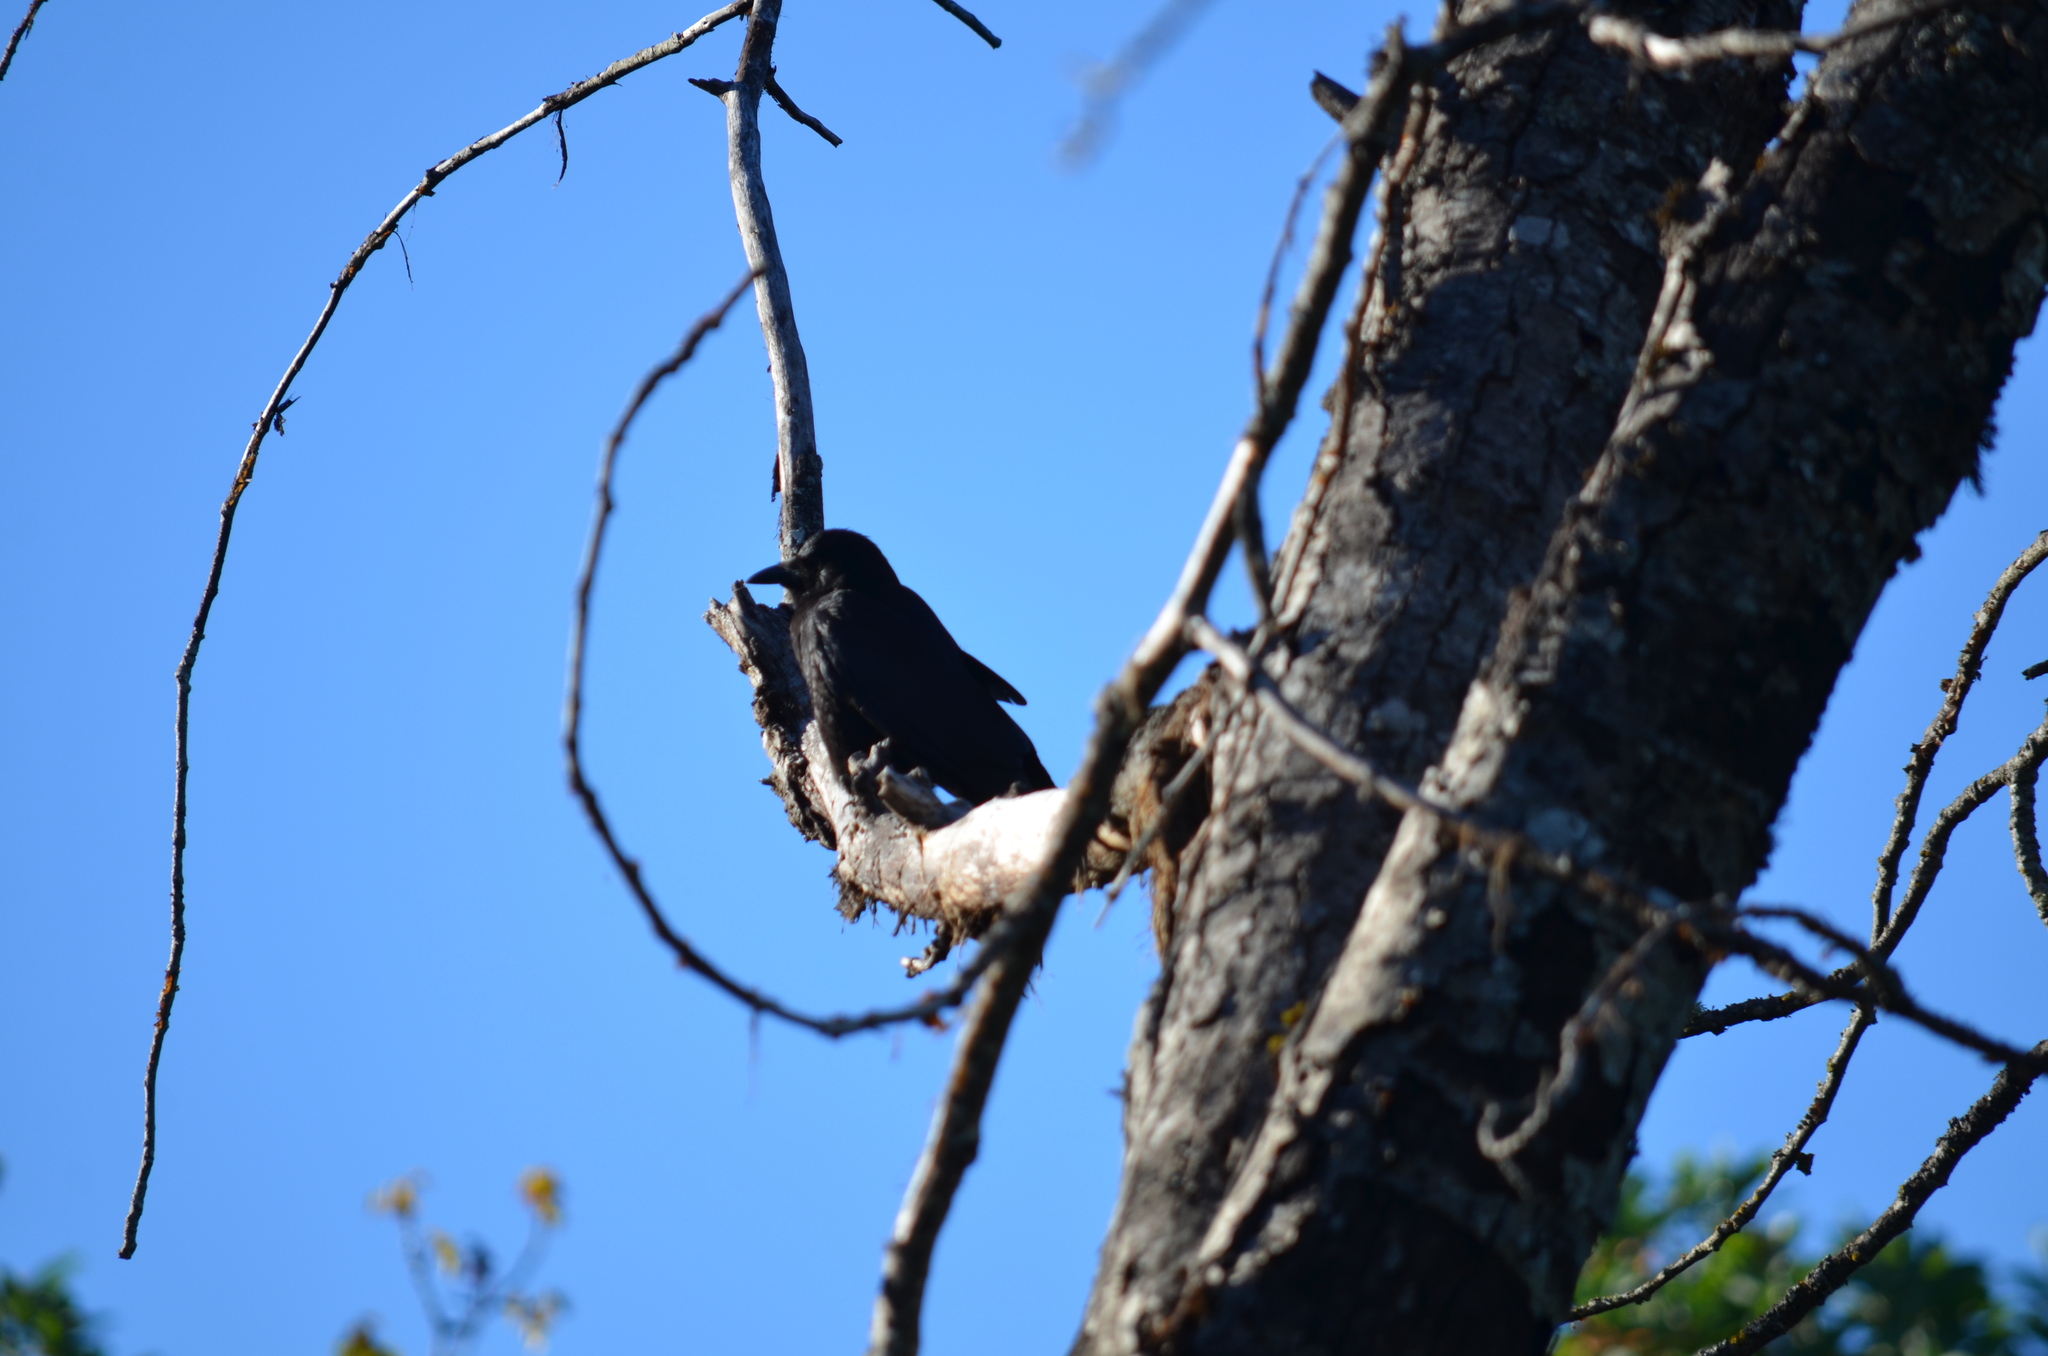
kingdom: Animalia
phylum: Chordata
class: Aves
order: Passeriformes
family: Corvidae
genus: Corvus
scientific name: Corvus brachyrhynchos
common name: American crow
